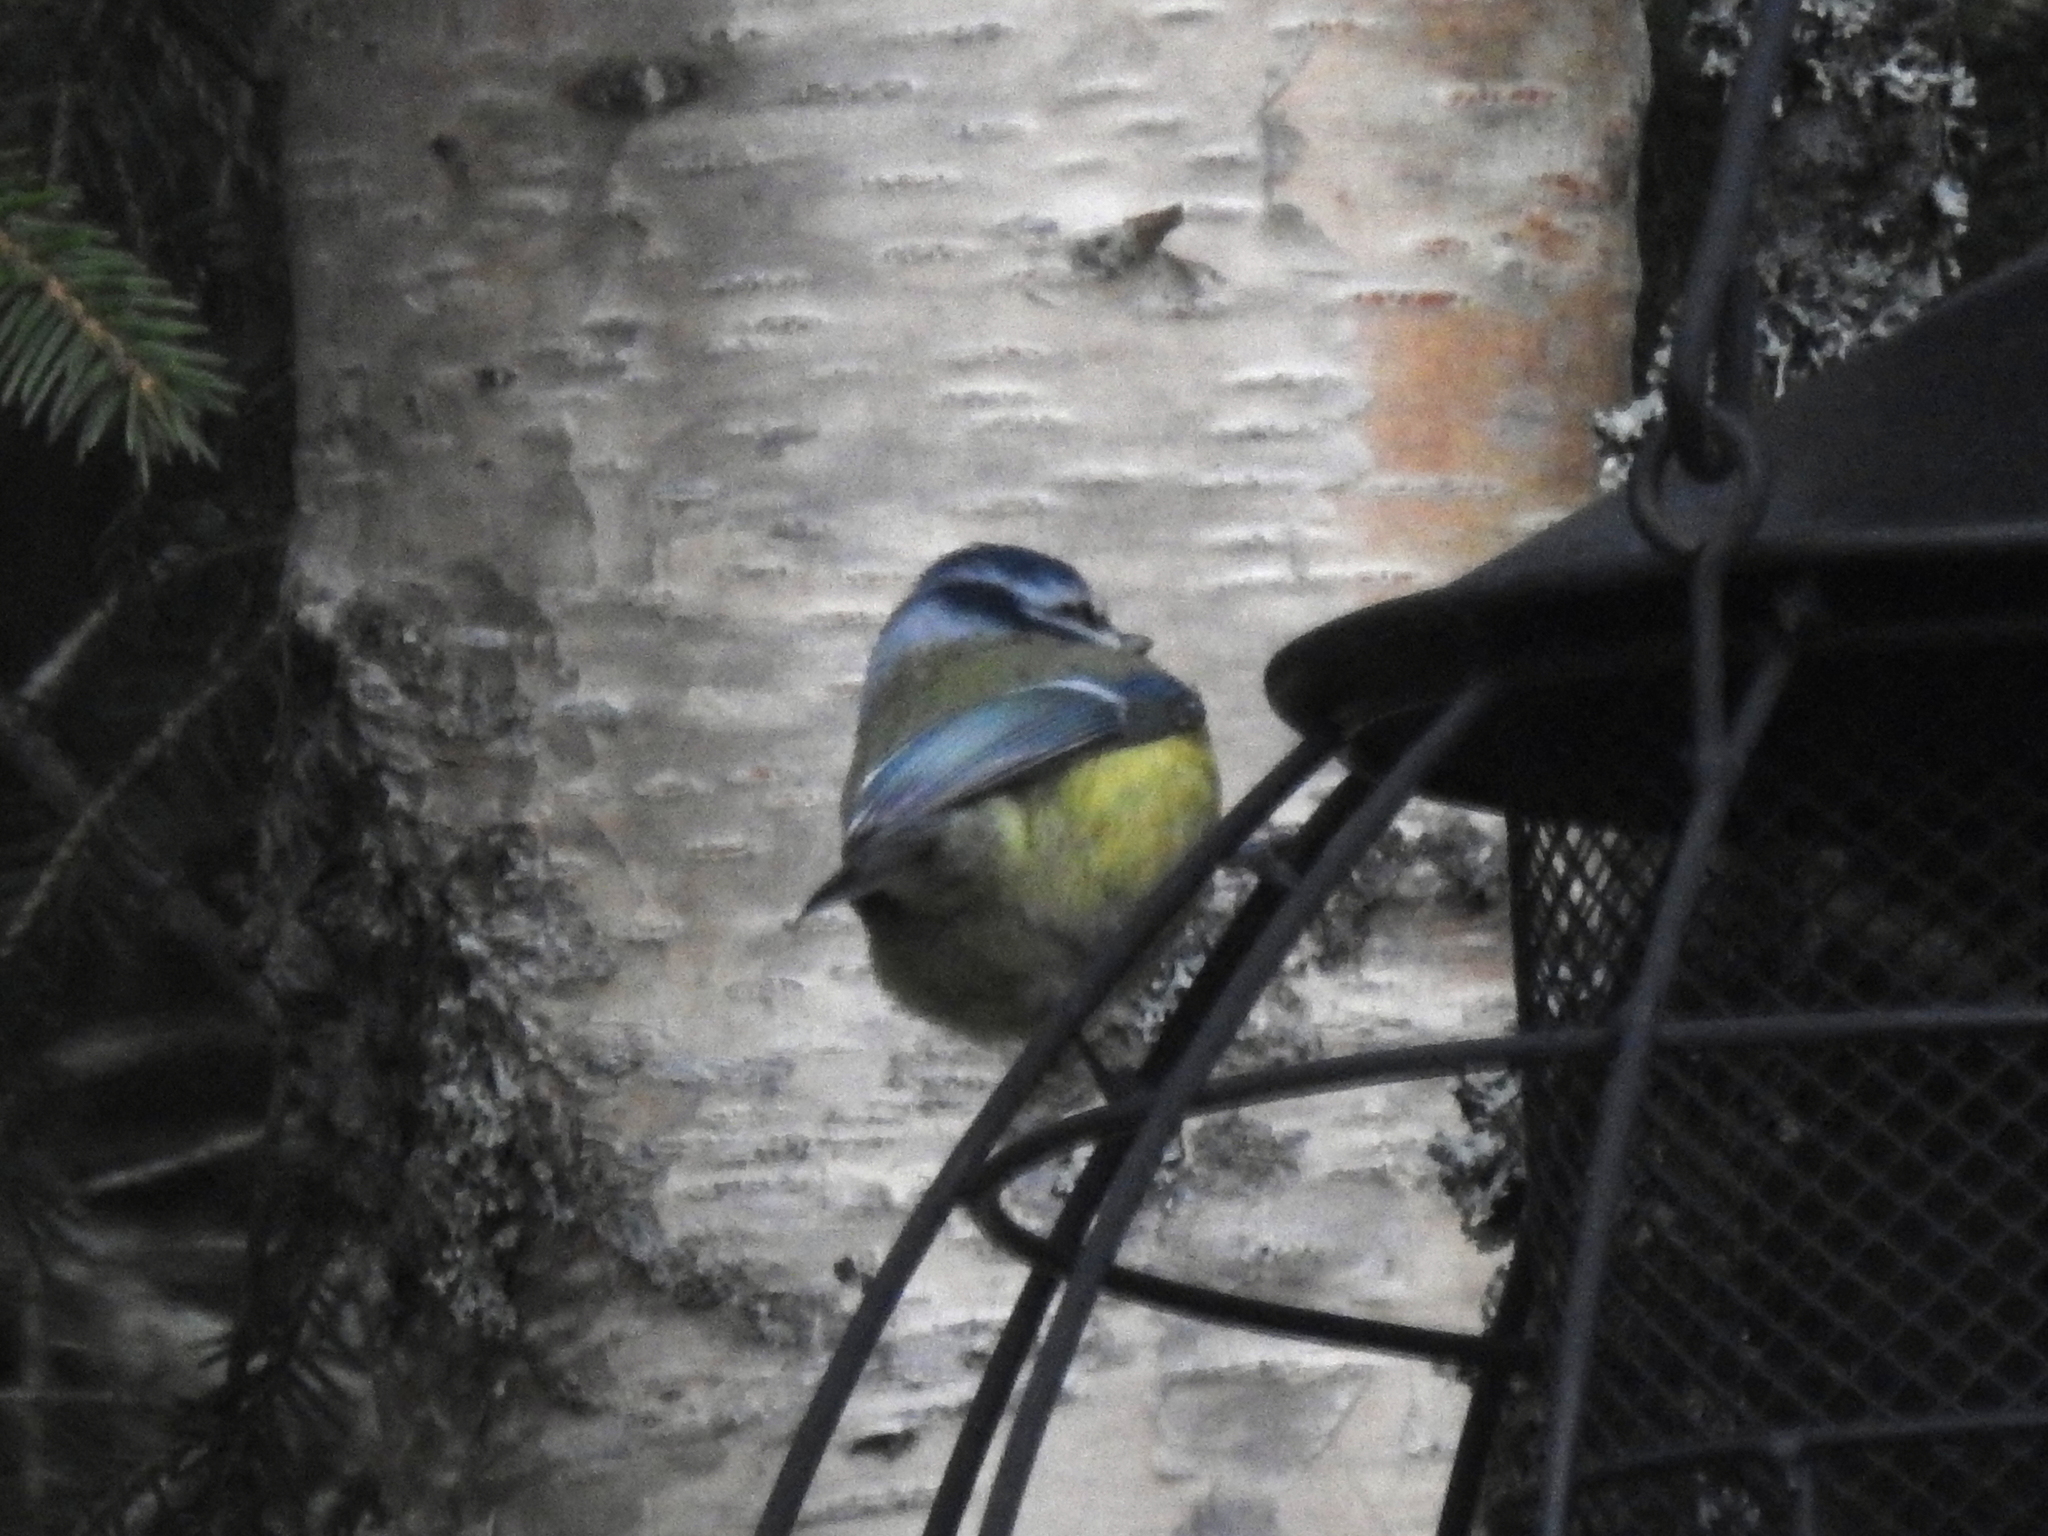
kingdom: Animalia
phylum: Chordata
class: Aves
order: Passeriformes
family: Paridae
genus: Cyanistes
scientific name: Cyanistes caeruleus
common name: Eurasian blue tit
